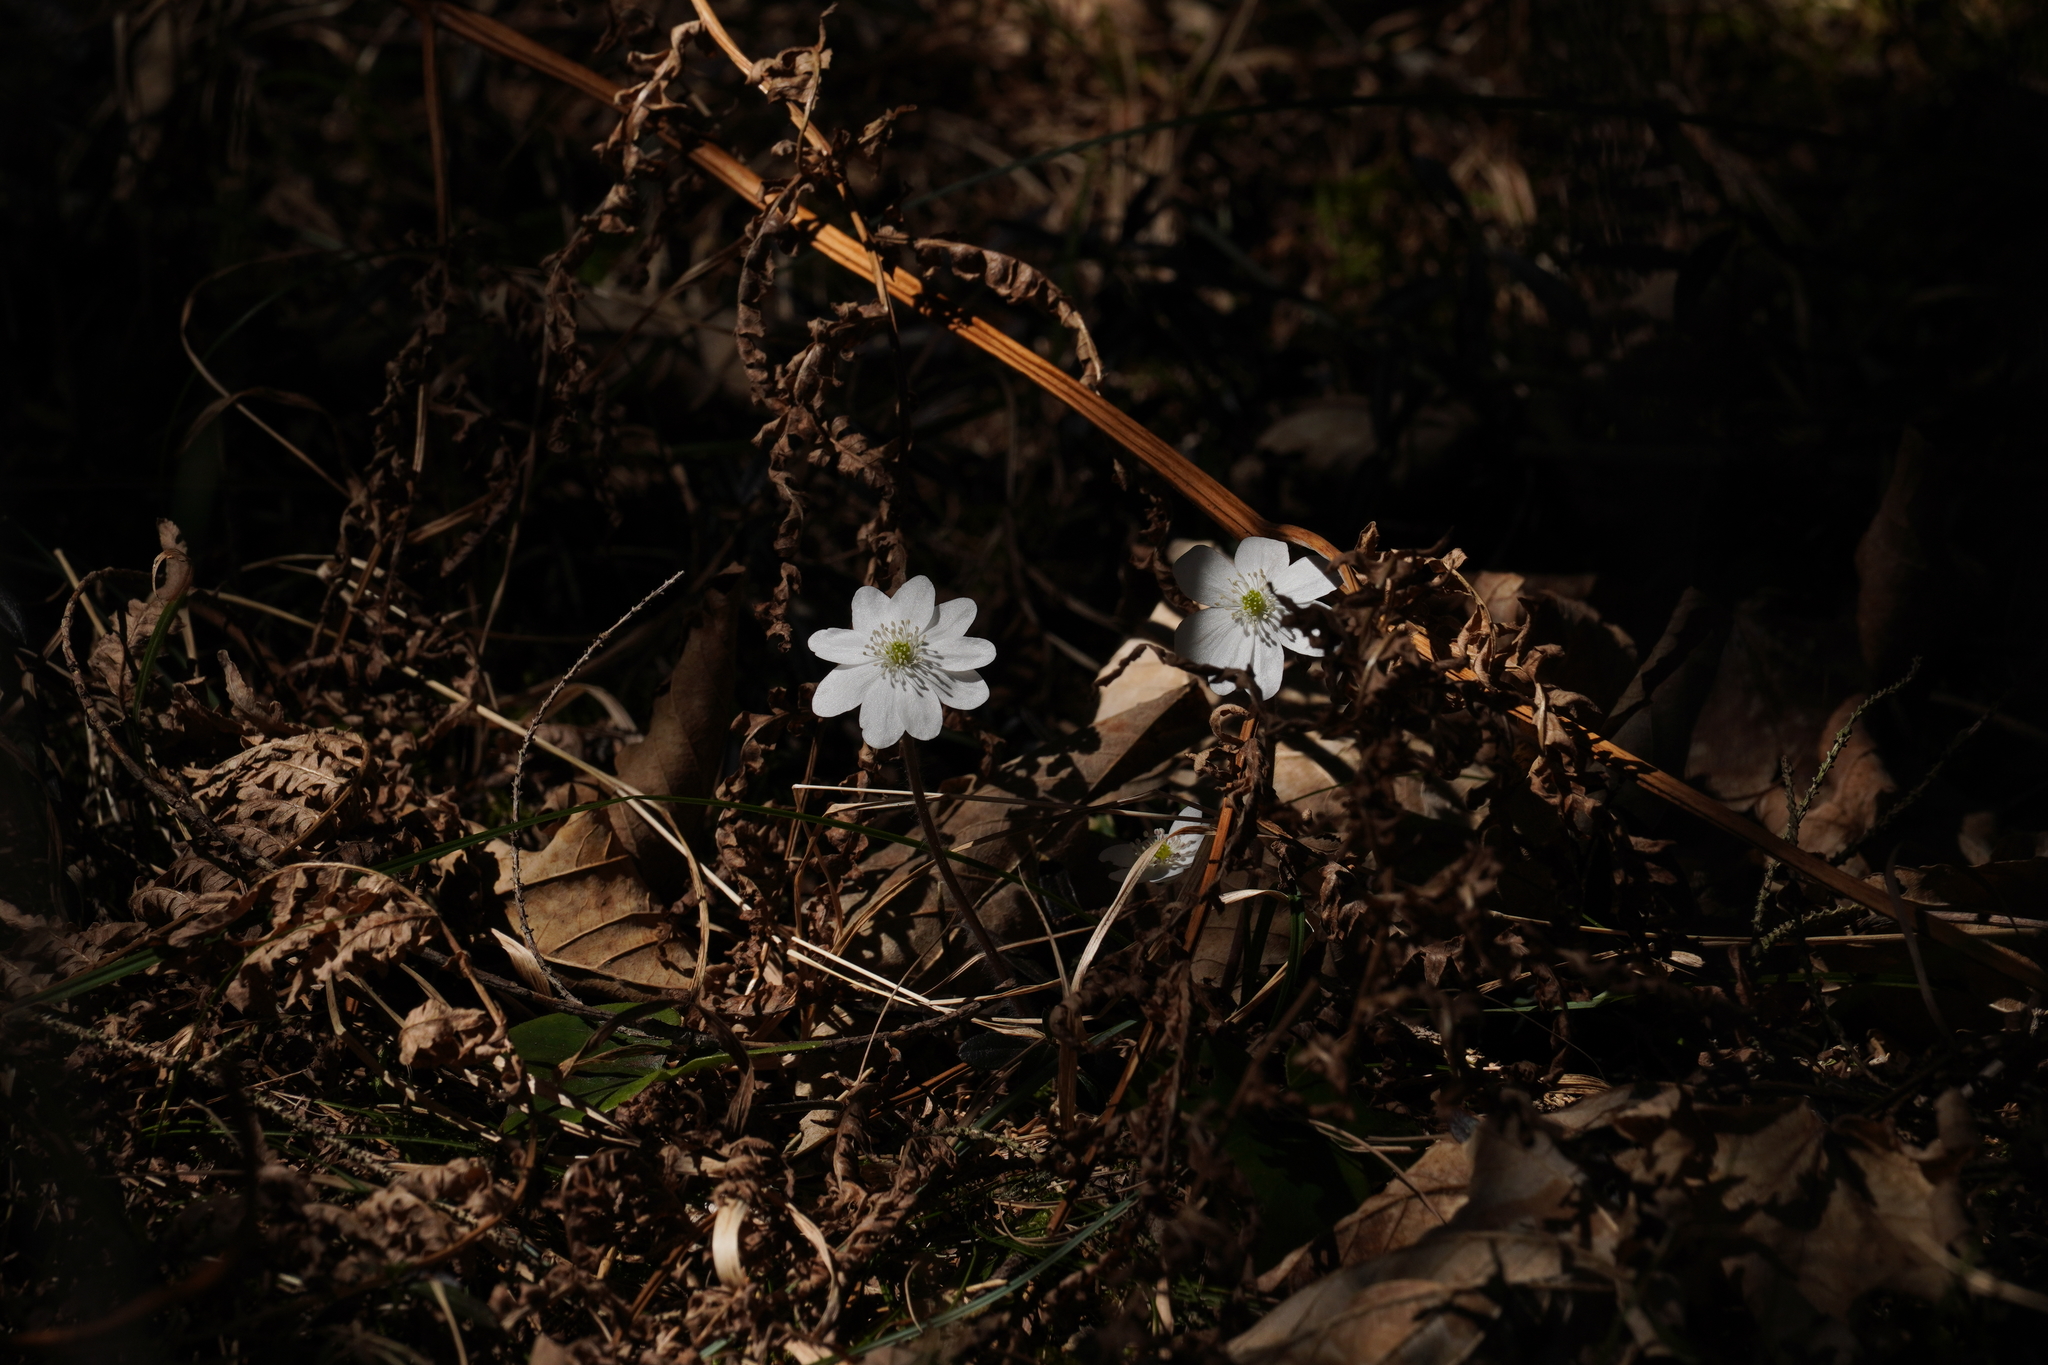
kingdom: Plantae
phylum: Tracheophyta
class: Magnoliopsida
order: Ranunculales
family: Ranunculaceae
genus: Hepatica
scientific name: Hepatica nobilis
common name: Liverleaf
